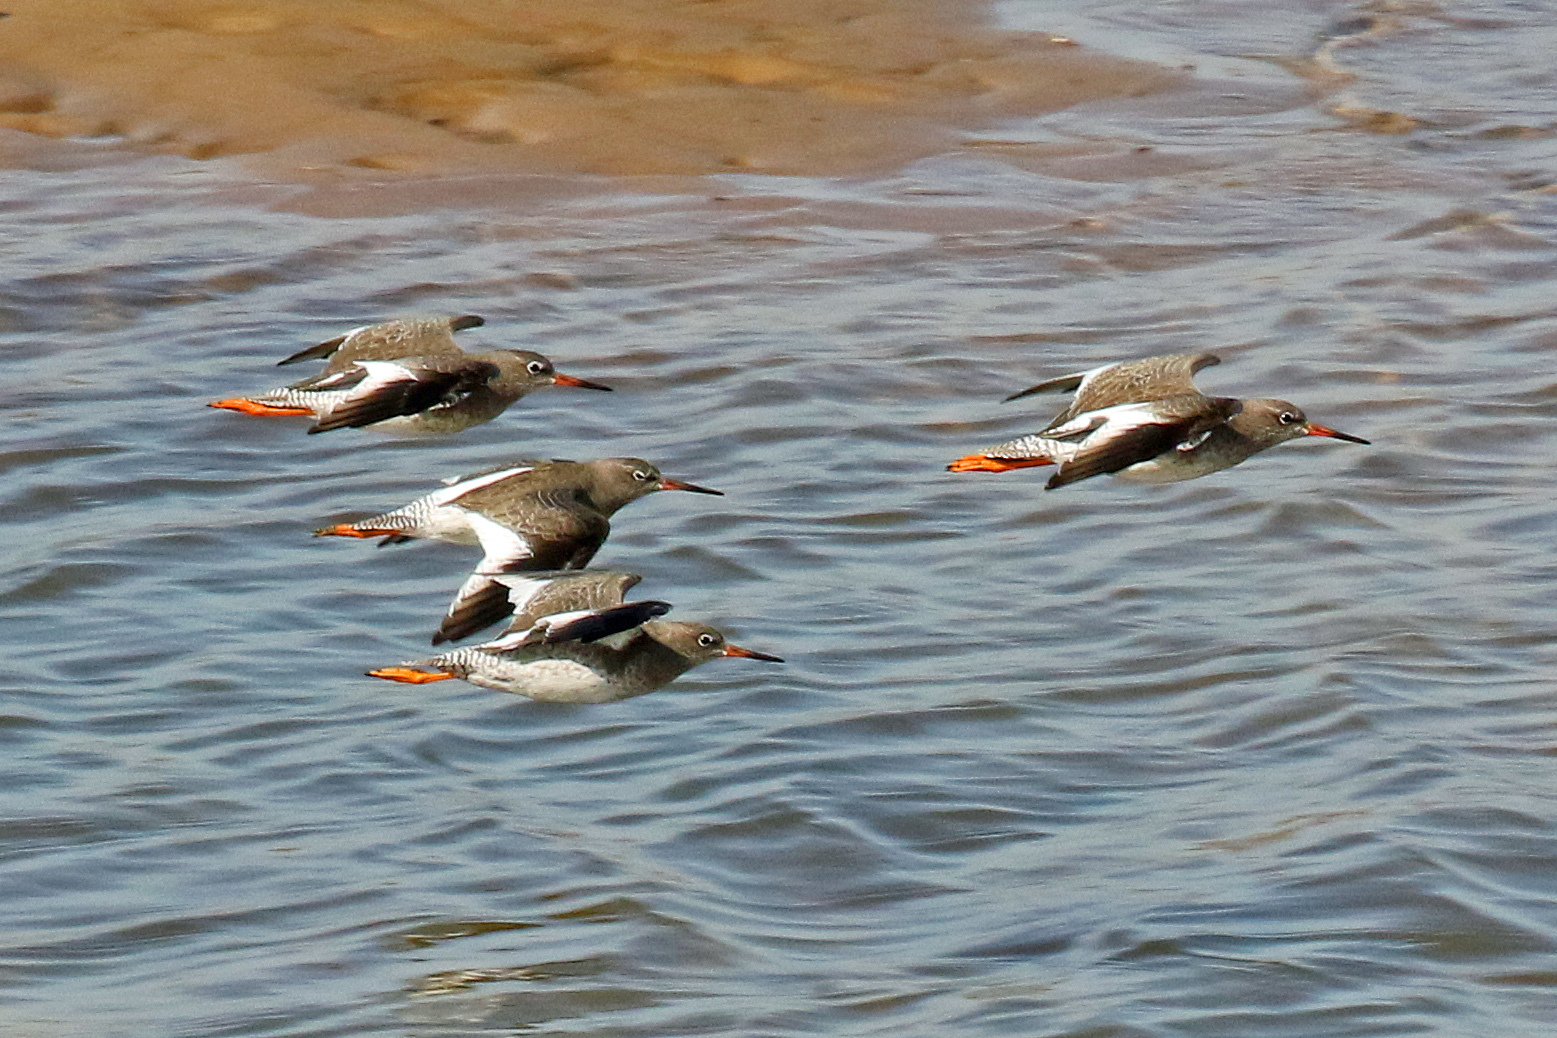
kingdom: Animalia
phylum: Chordata
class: Aves
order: Charadriiformes
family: Scolopacidae
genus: Tringa
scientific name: Tringa totanus
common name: Common redshank
